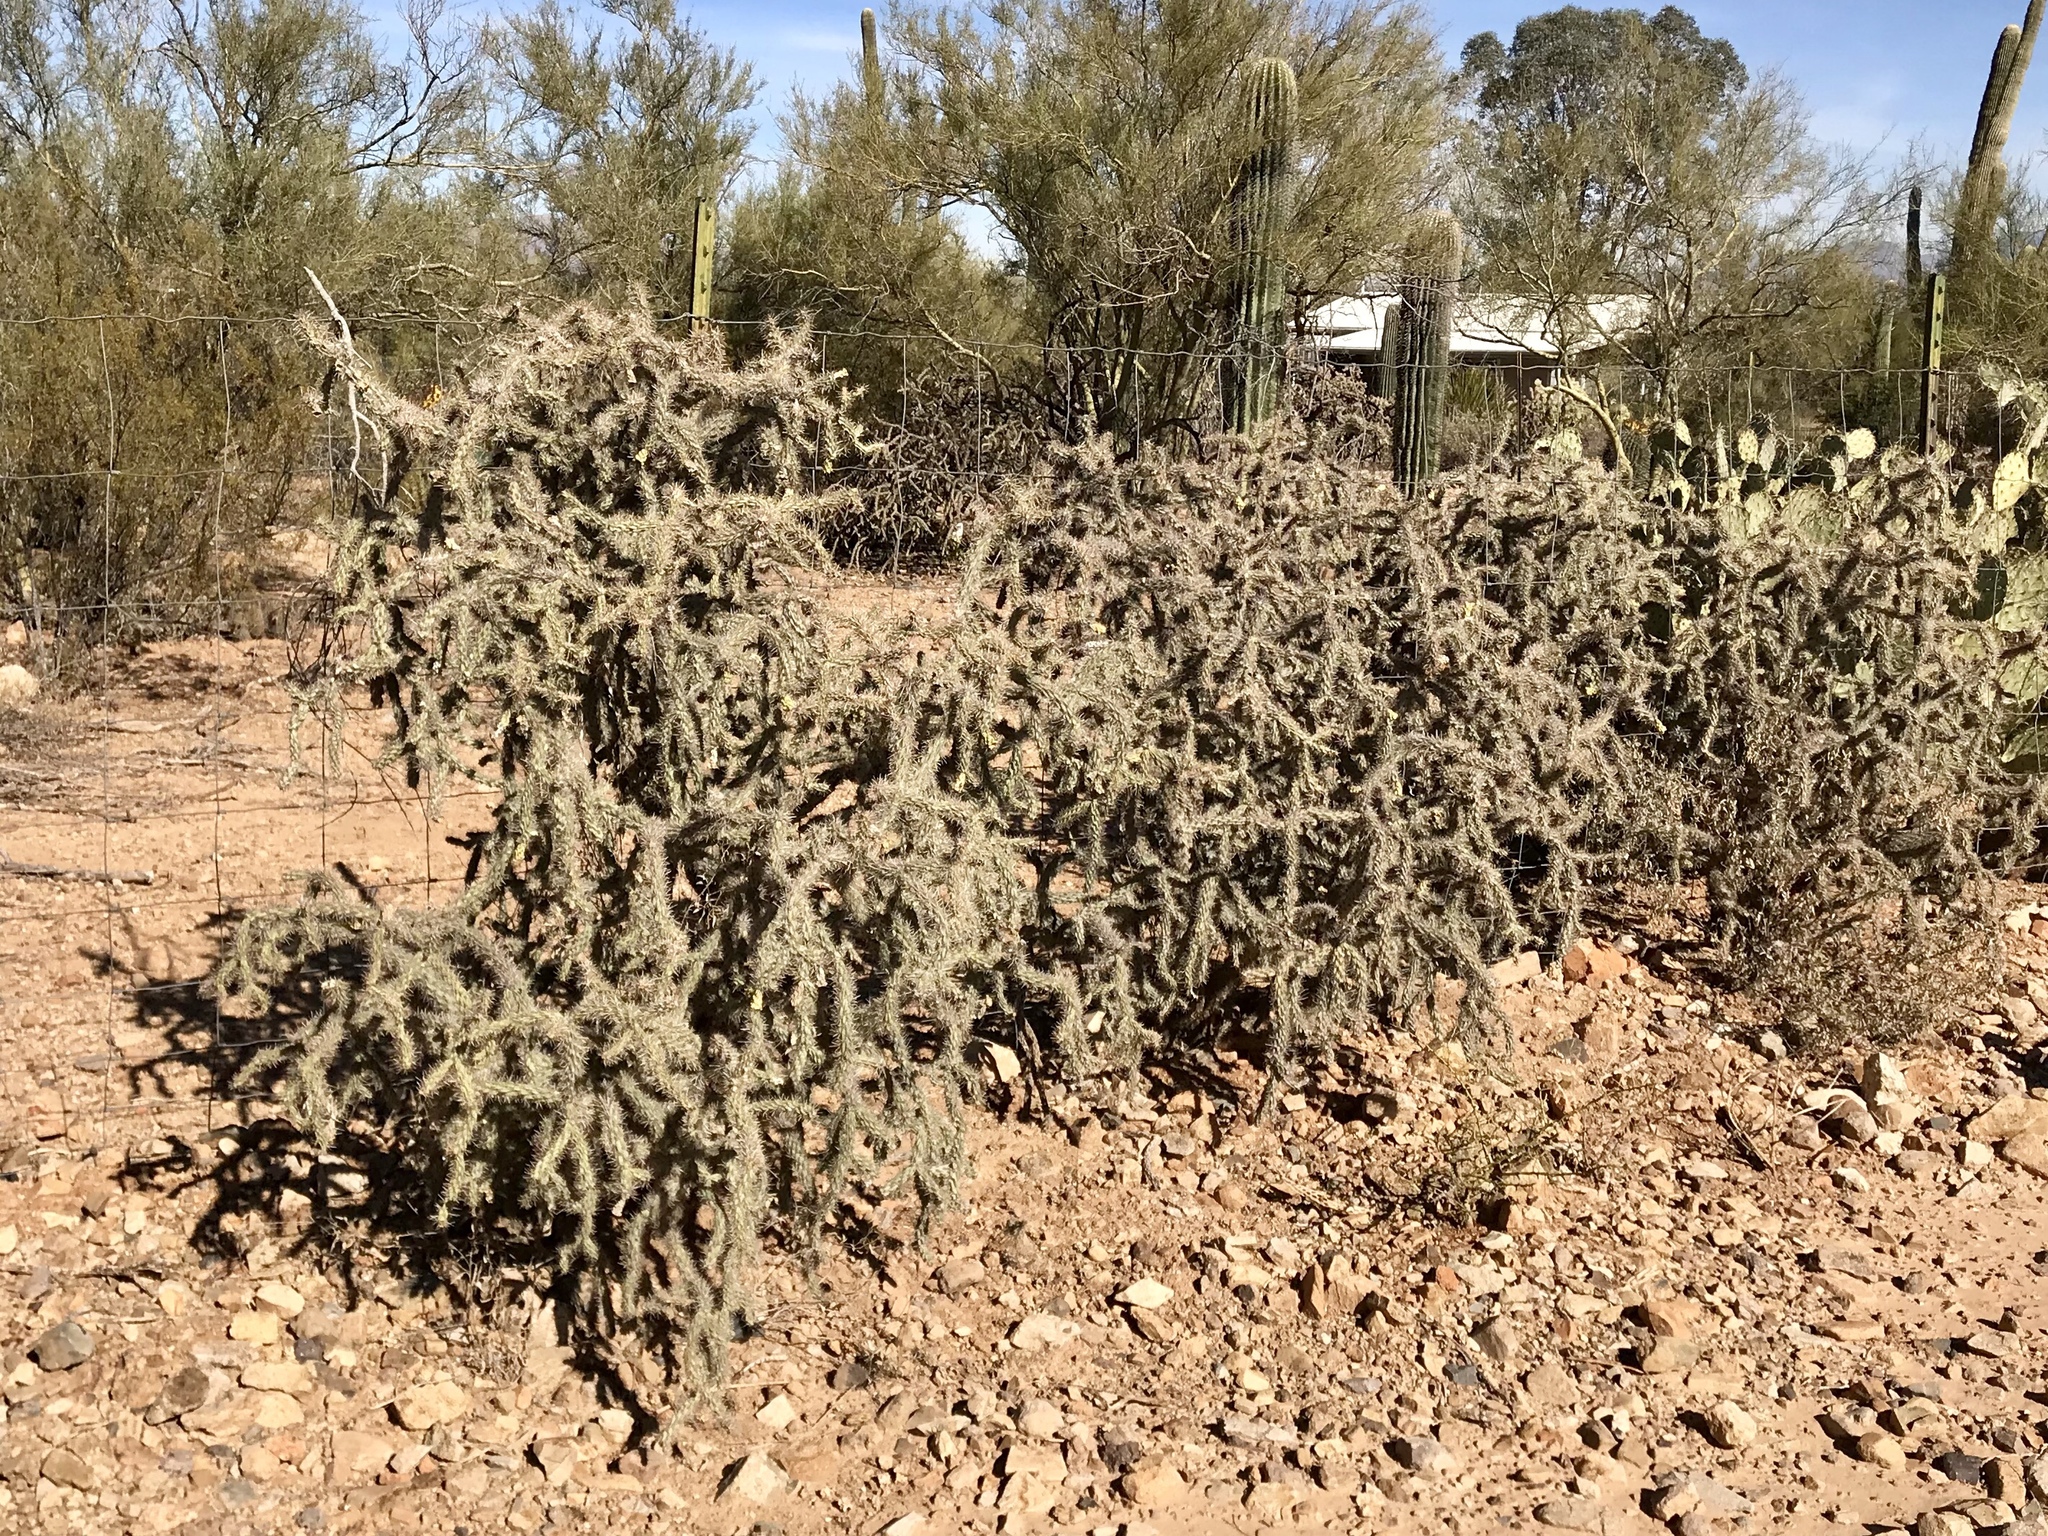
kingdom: Plantae
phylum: Tracheophyta
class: Magnoliopsida
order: Caryophyllales
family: Cactaceae
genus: Cylindropuntia
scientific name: Cylindropuntia imbricata
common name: Candelabrum cactus
